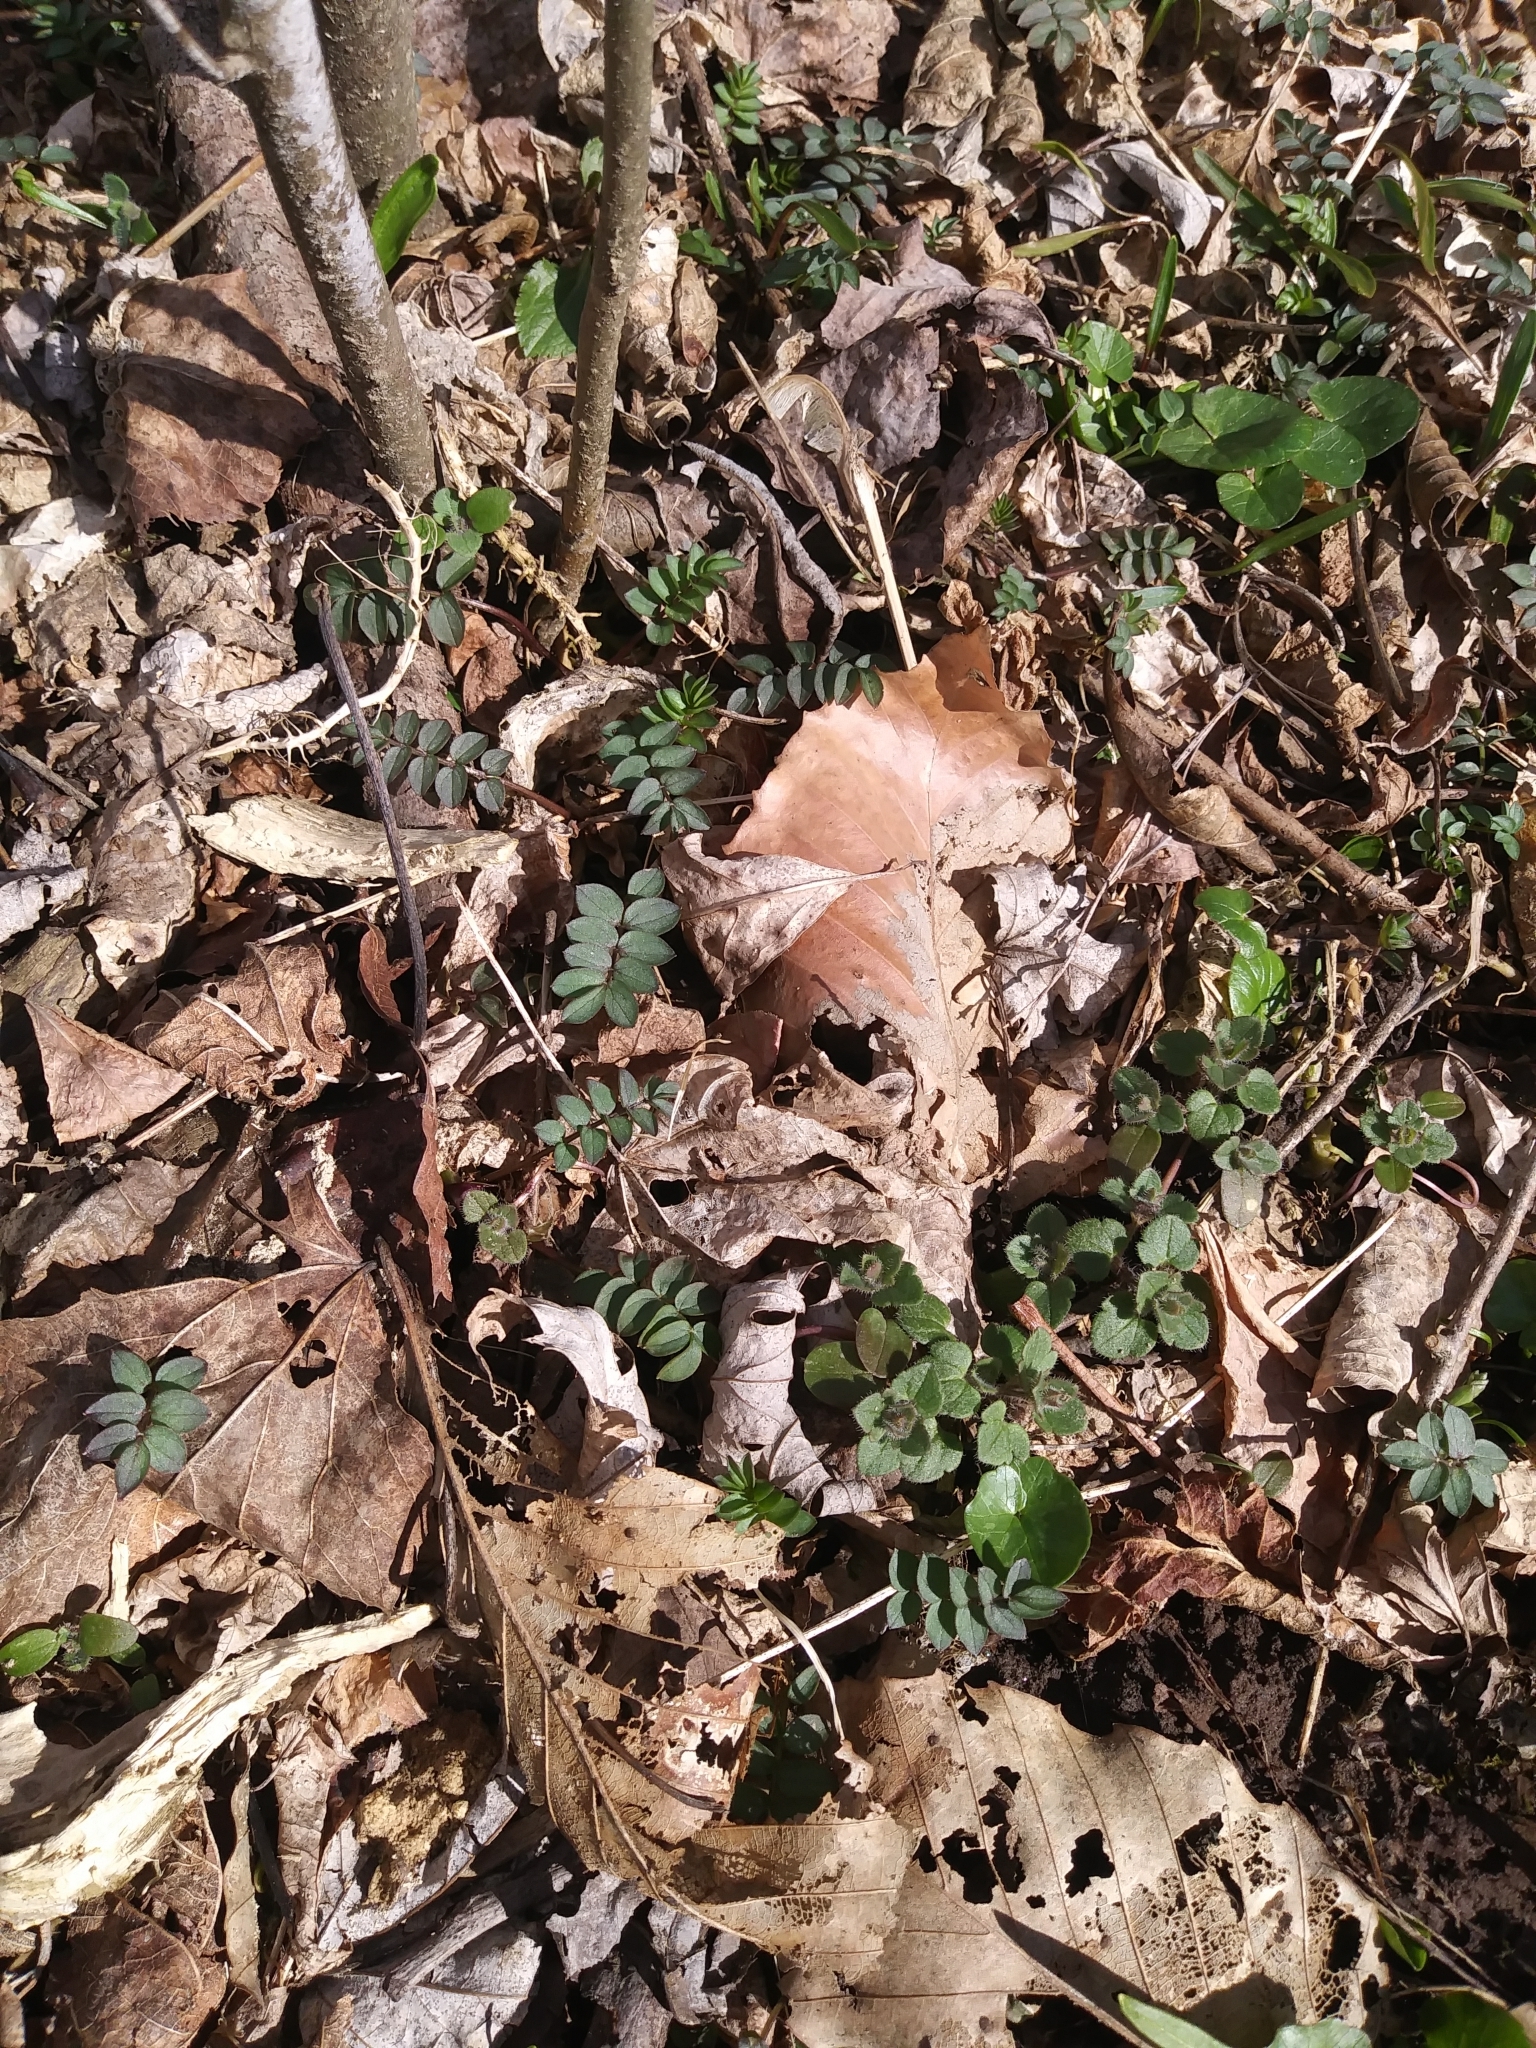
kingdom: Plantae
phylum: Tracheophyta
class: Magnoliopsida
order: Ericales
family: Polemoniaceae
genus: Polemonium
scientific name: Polemonium reptans
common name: Creeping jacob's-ladder
